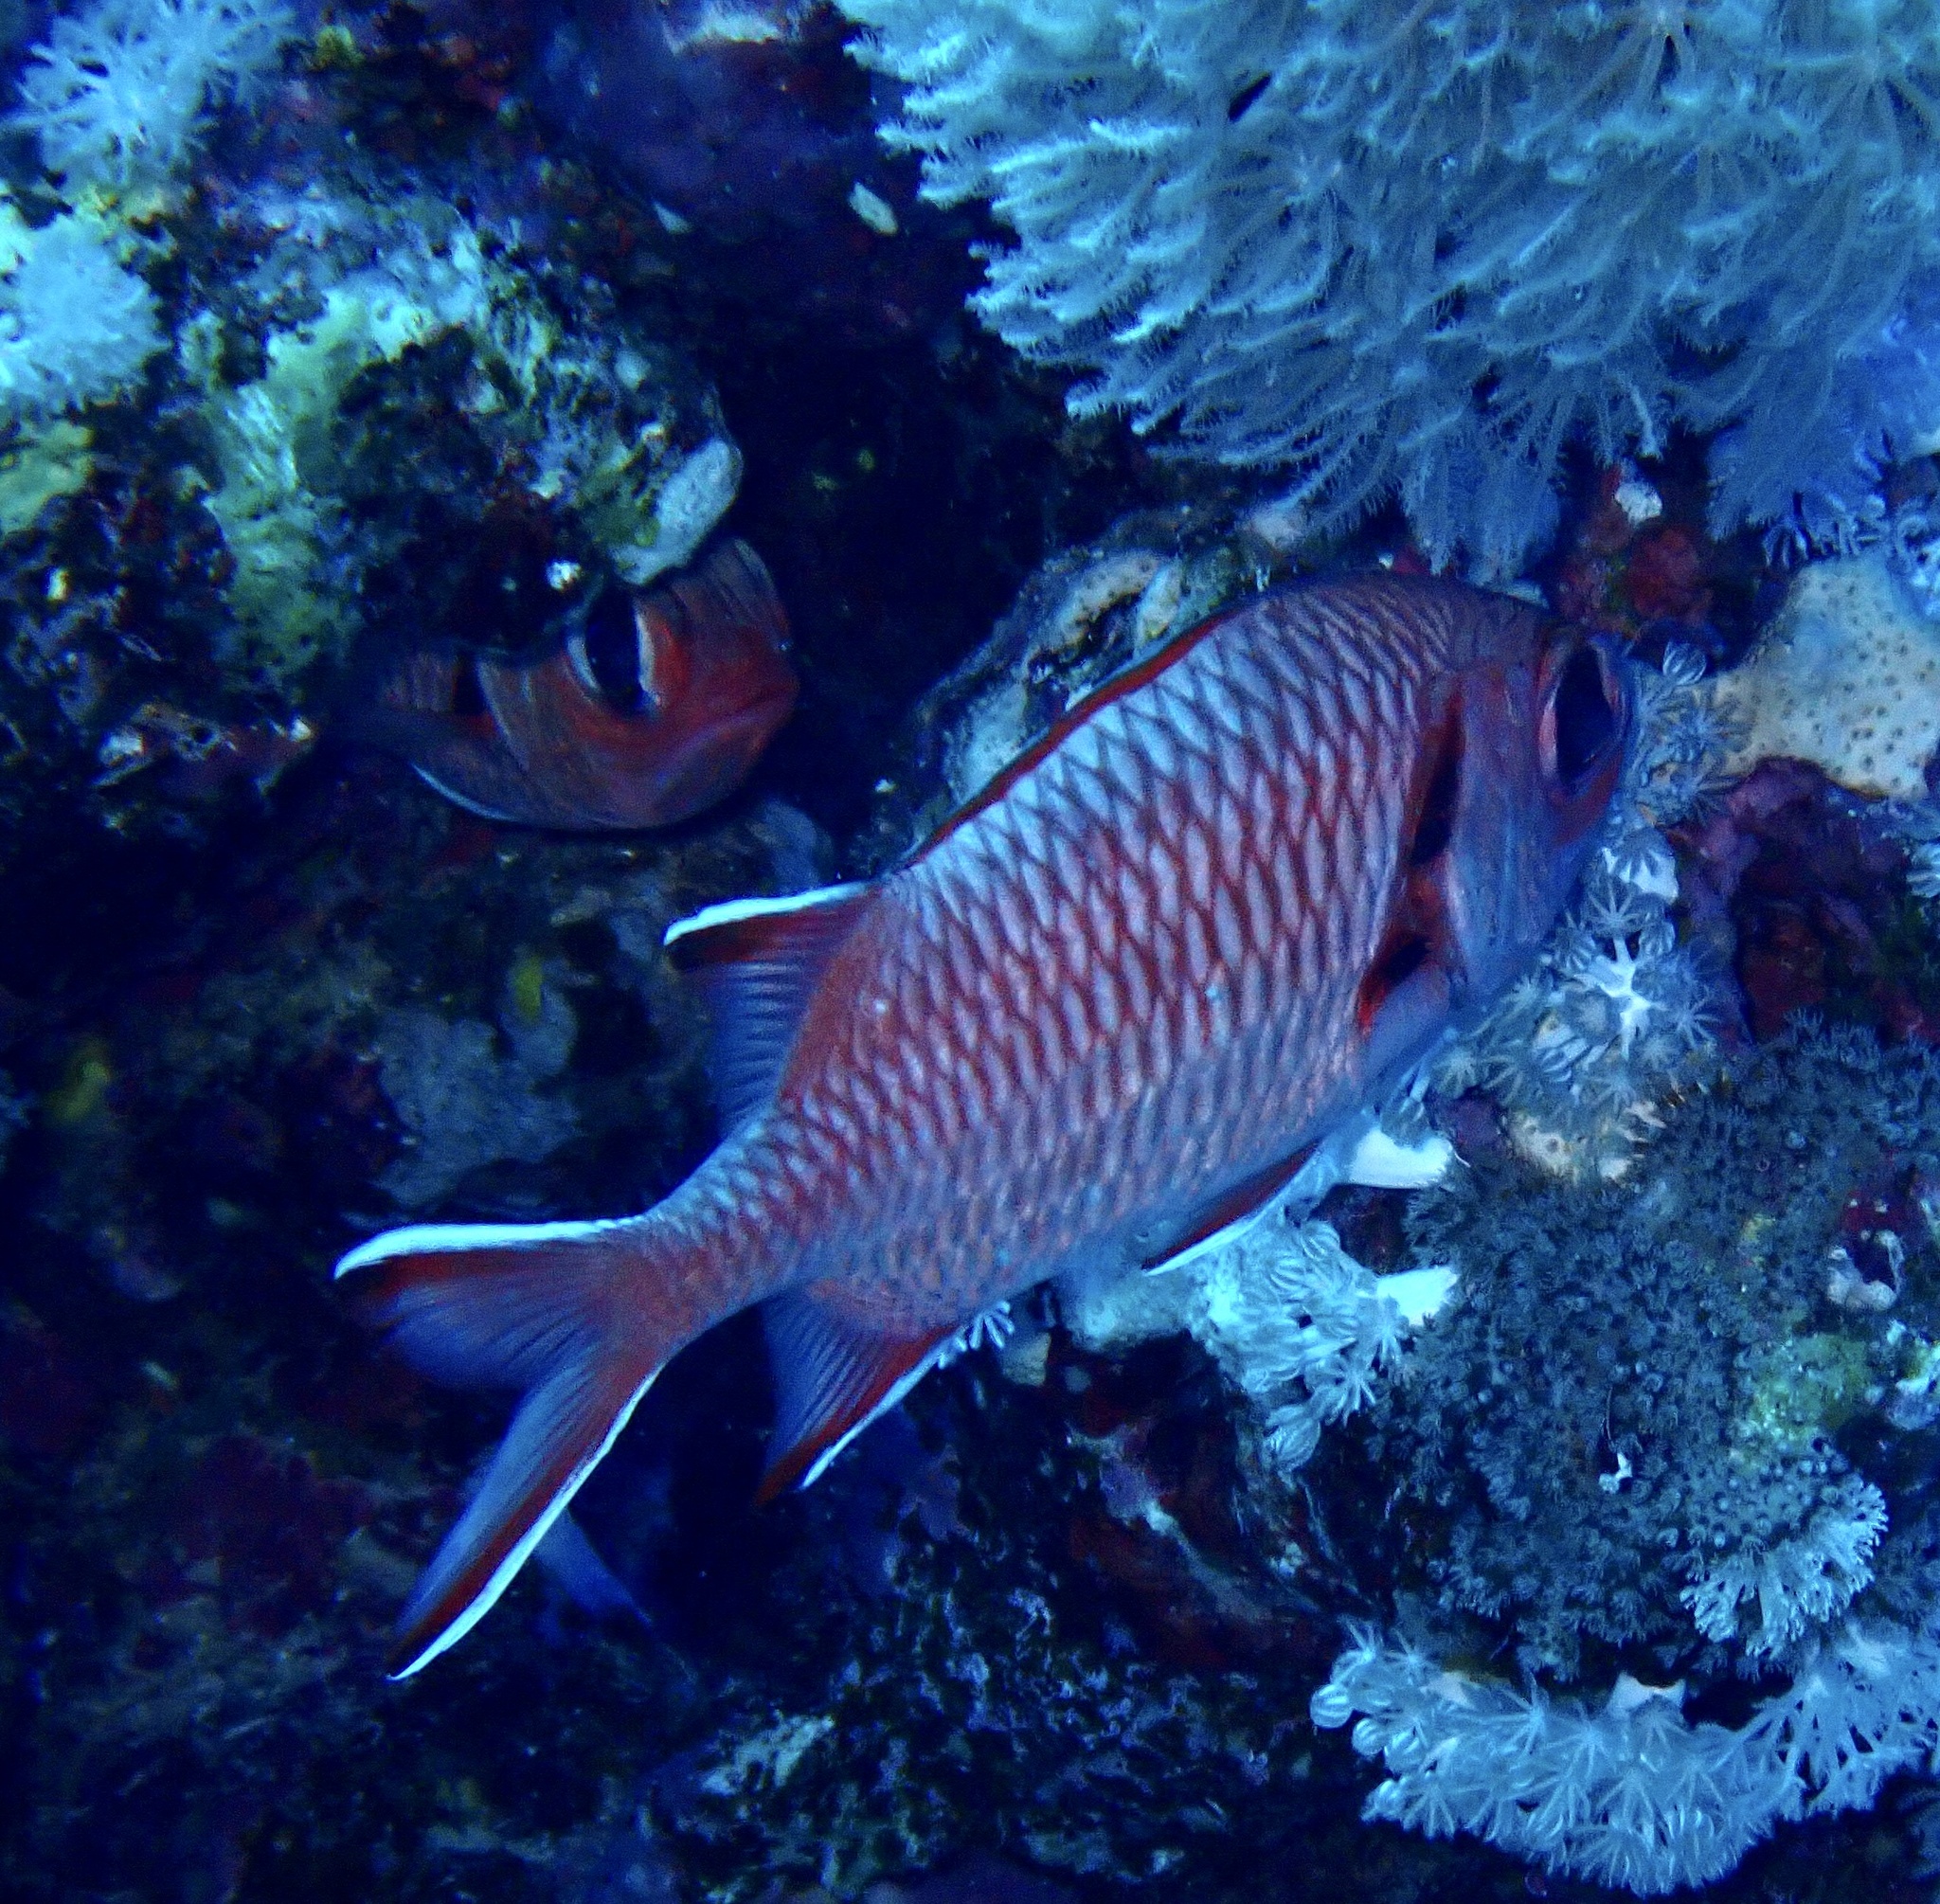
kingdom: Animalia
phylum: Chordata
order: Beryciformes
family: Holocentridae
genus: Myripristis
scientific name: Myripristis murdjan
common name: Big-eye soldierfish
